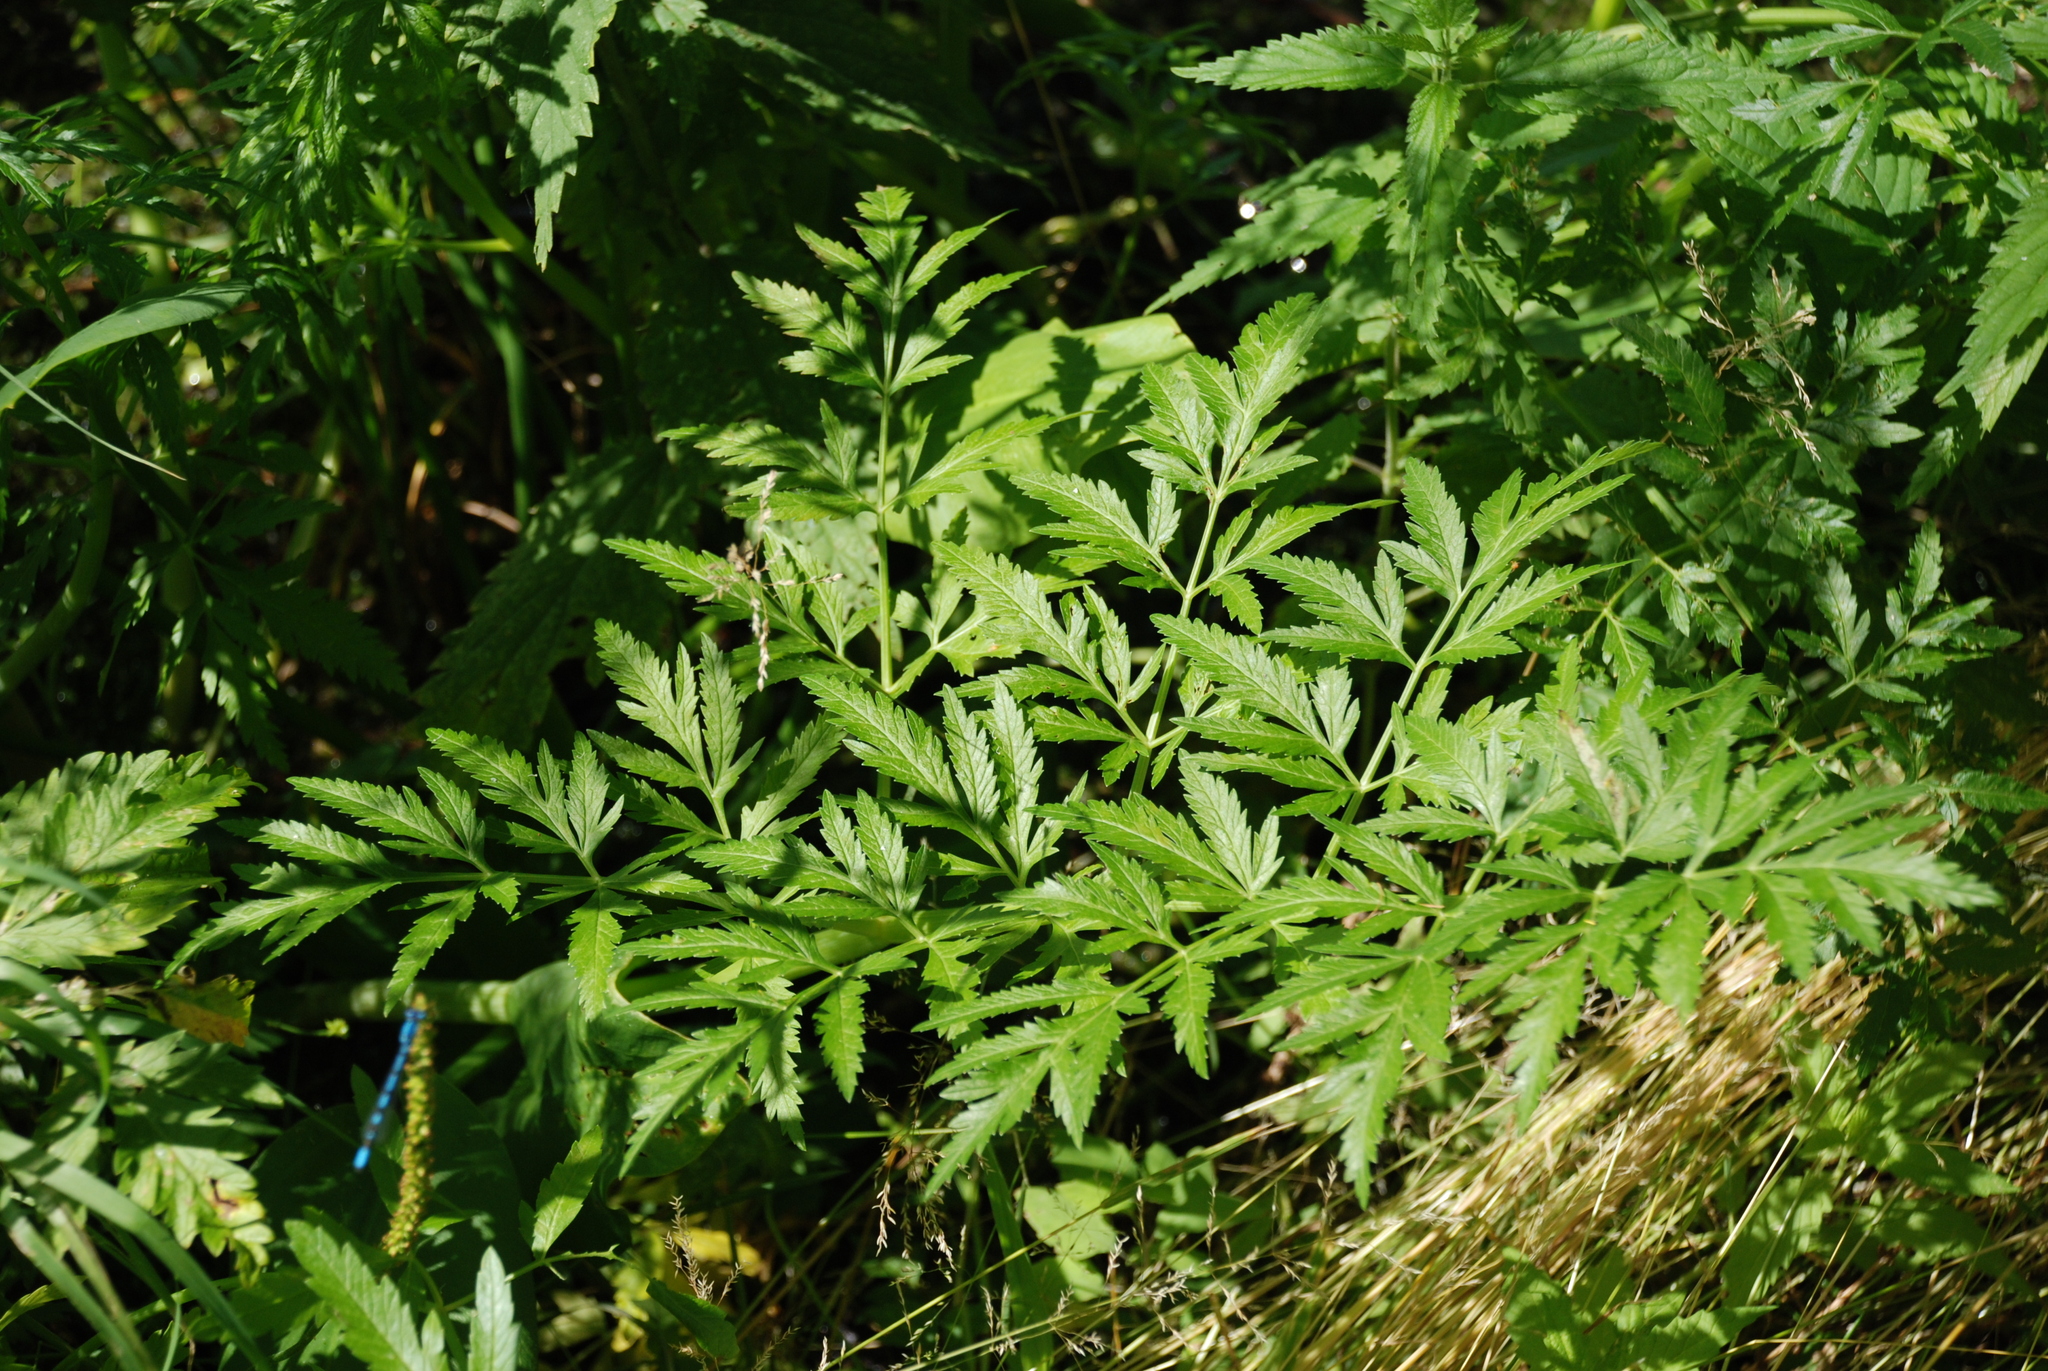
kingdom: Plantae
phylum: Tracheophyta
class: Magnoliopsida
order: Apiales
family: Apiaceae
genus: Cicuta
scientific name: Cicuta virosa
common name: Cowbane
